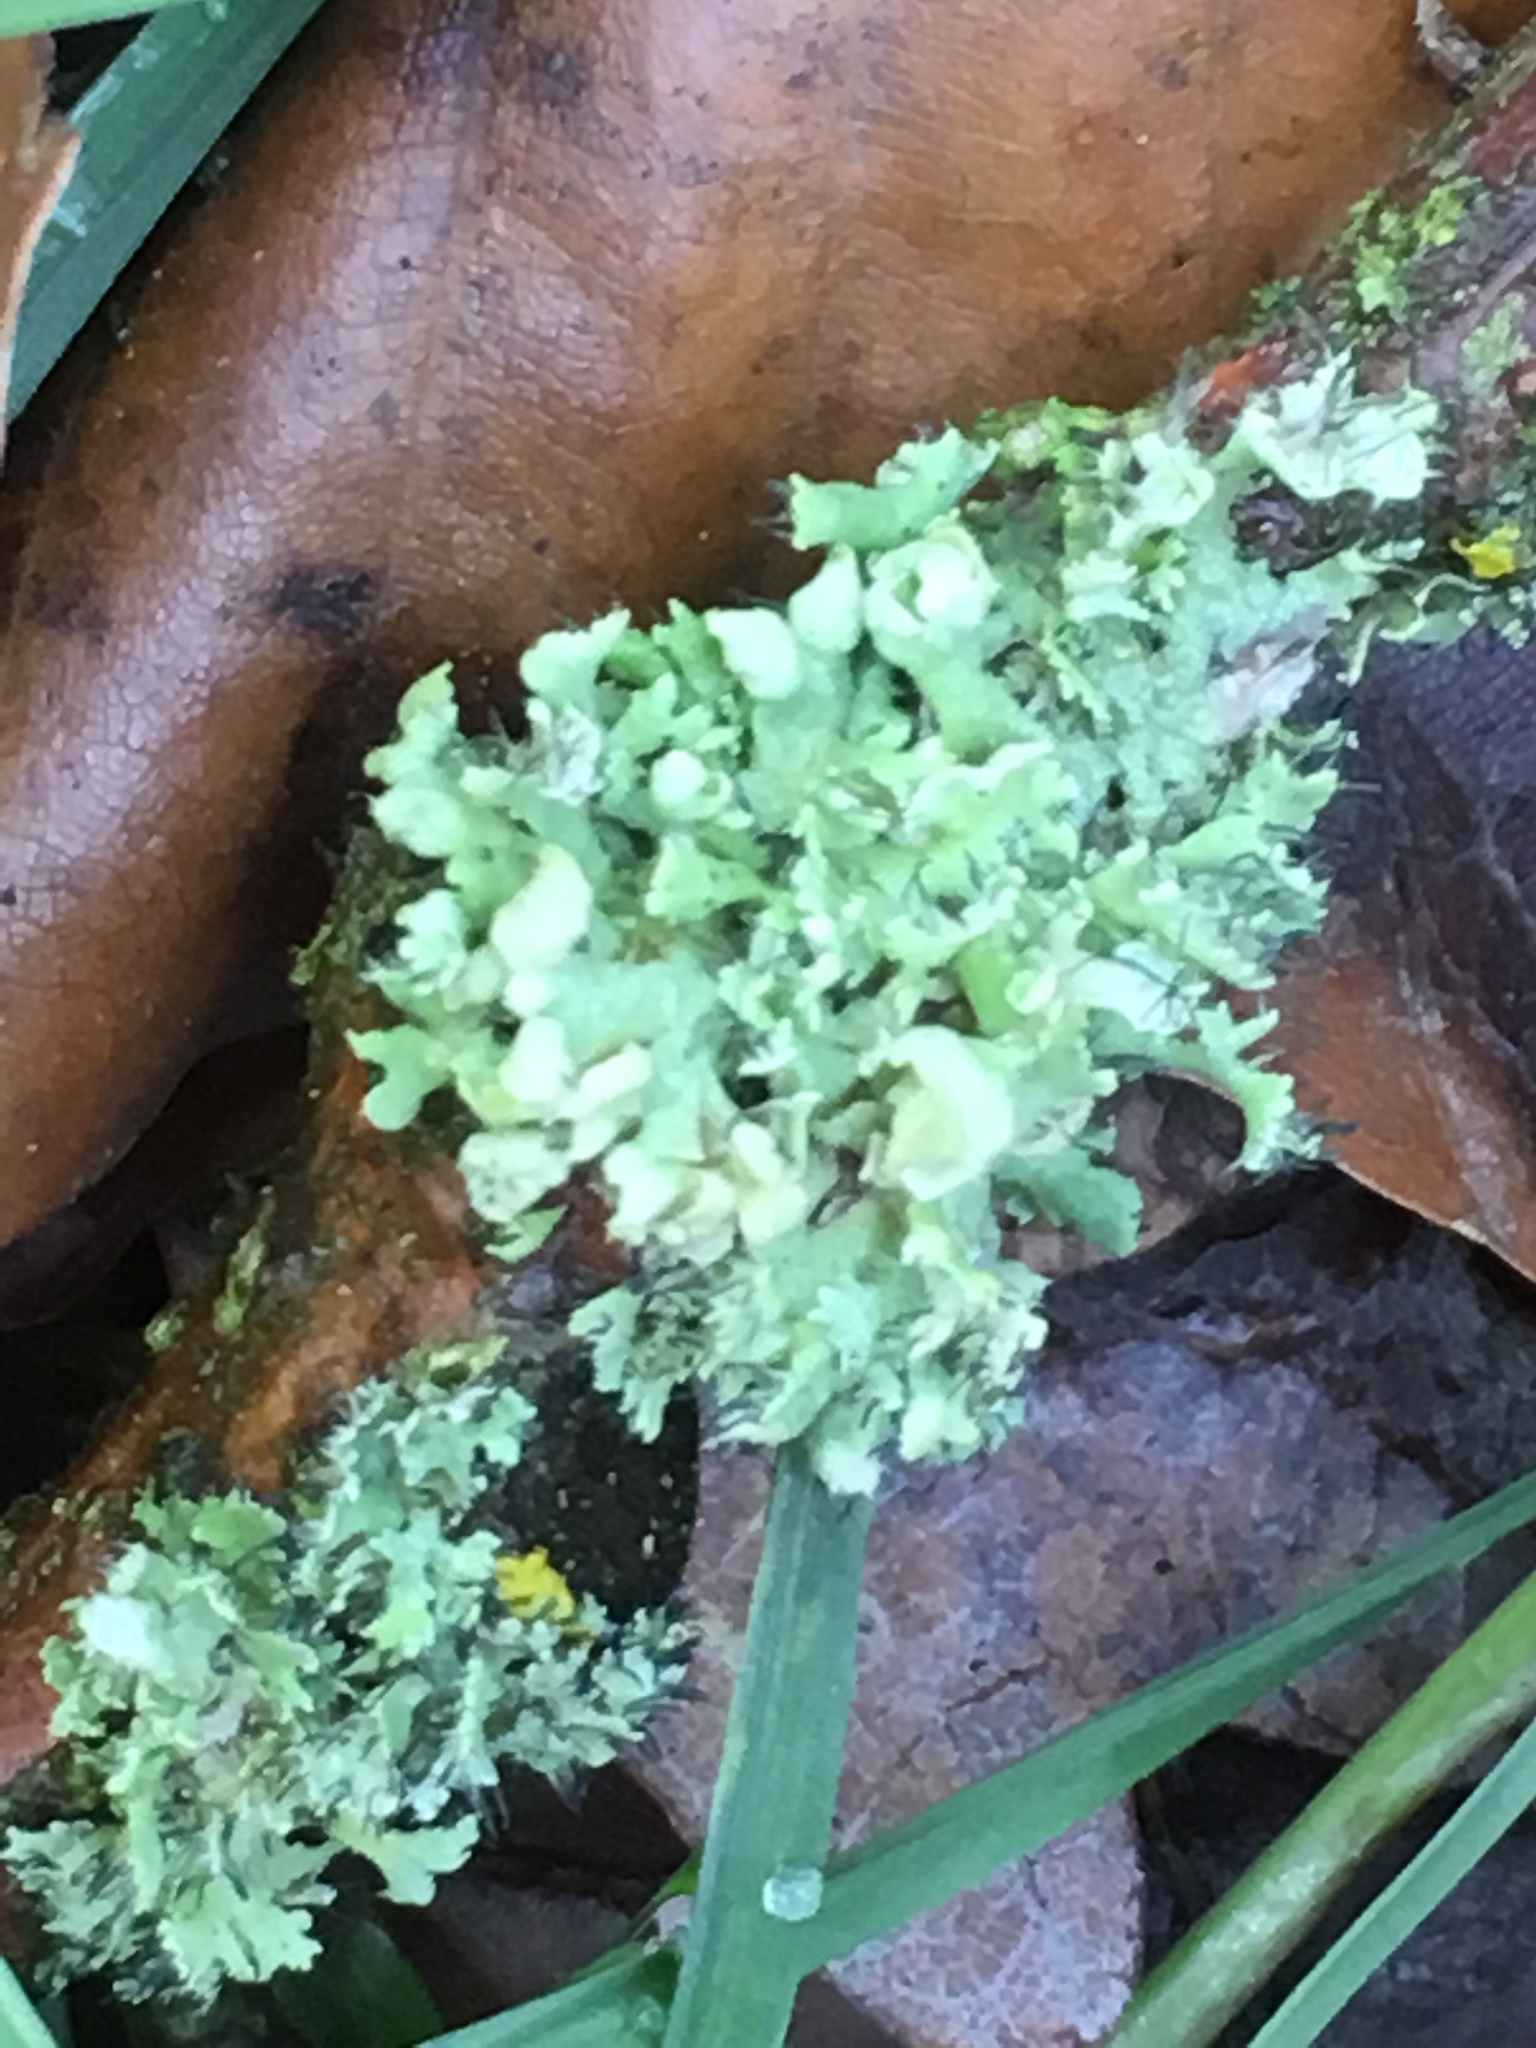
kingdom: Fungi
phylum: Ascomycota
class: Lecanoromycetes
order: Caliciales
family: Physciaceae
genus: Physcia
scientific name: Physcia adscendens
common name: Hooded rosette lichen
